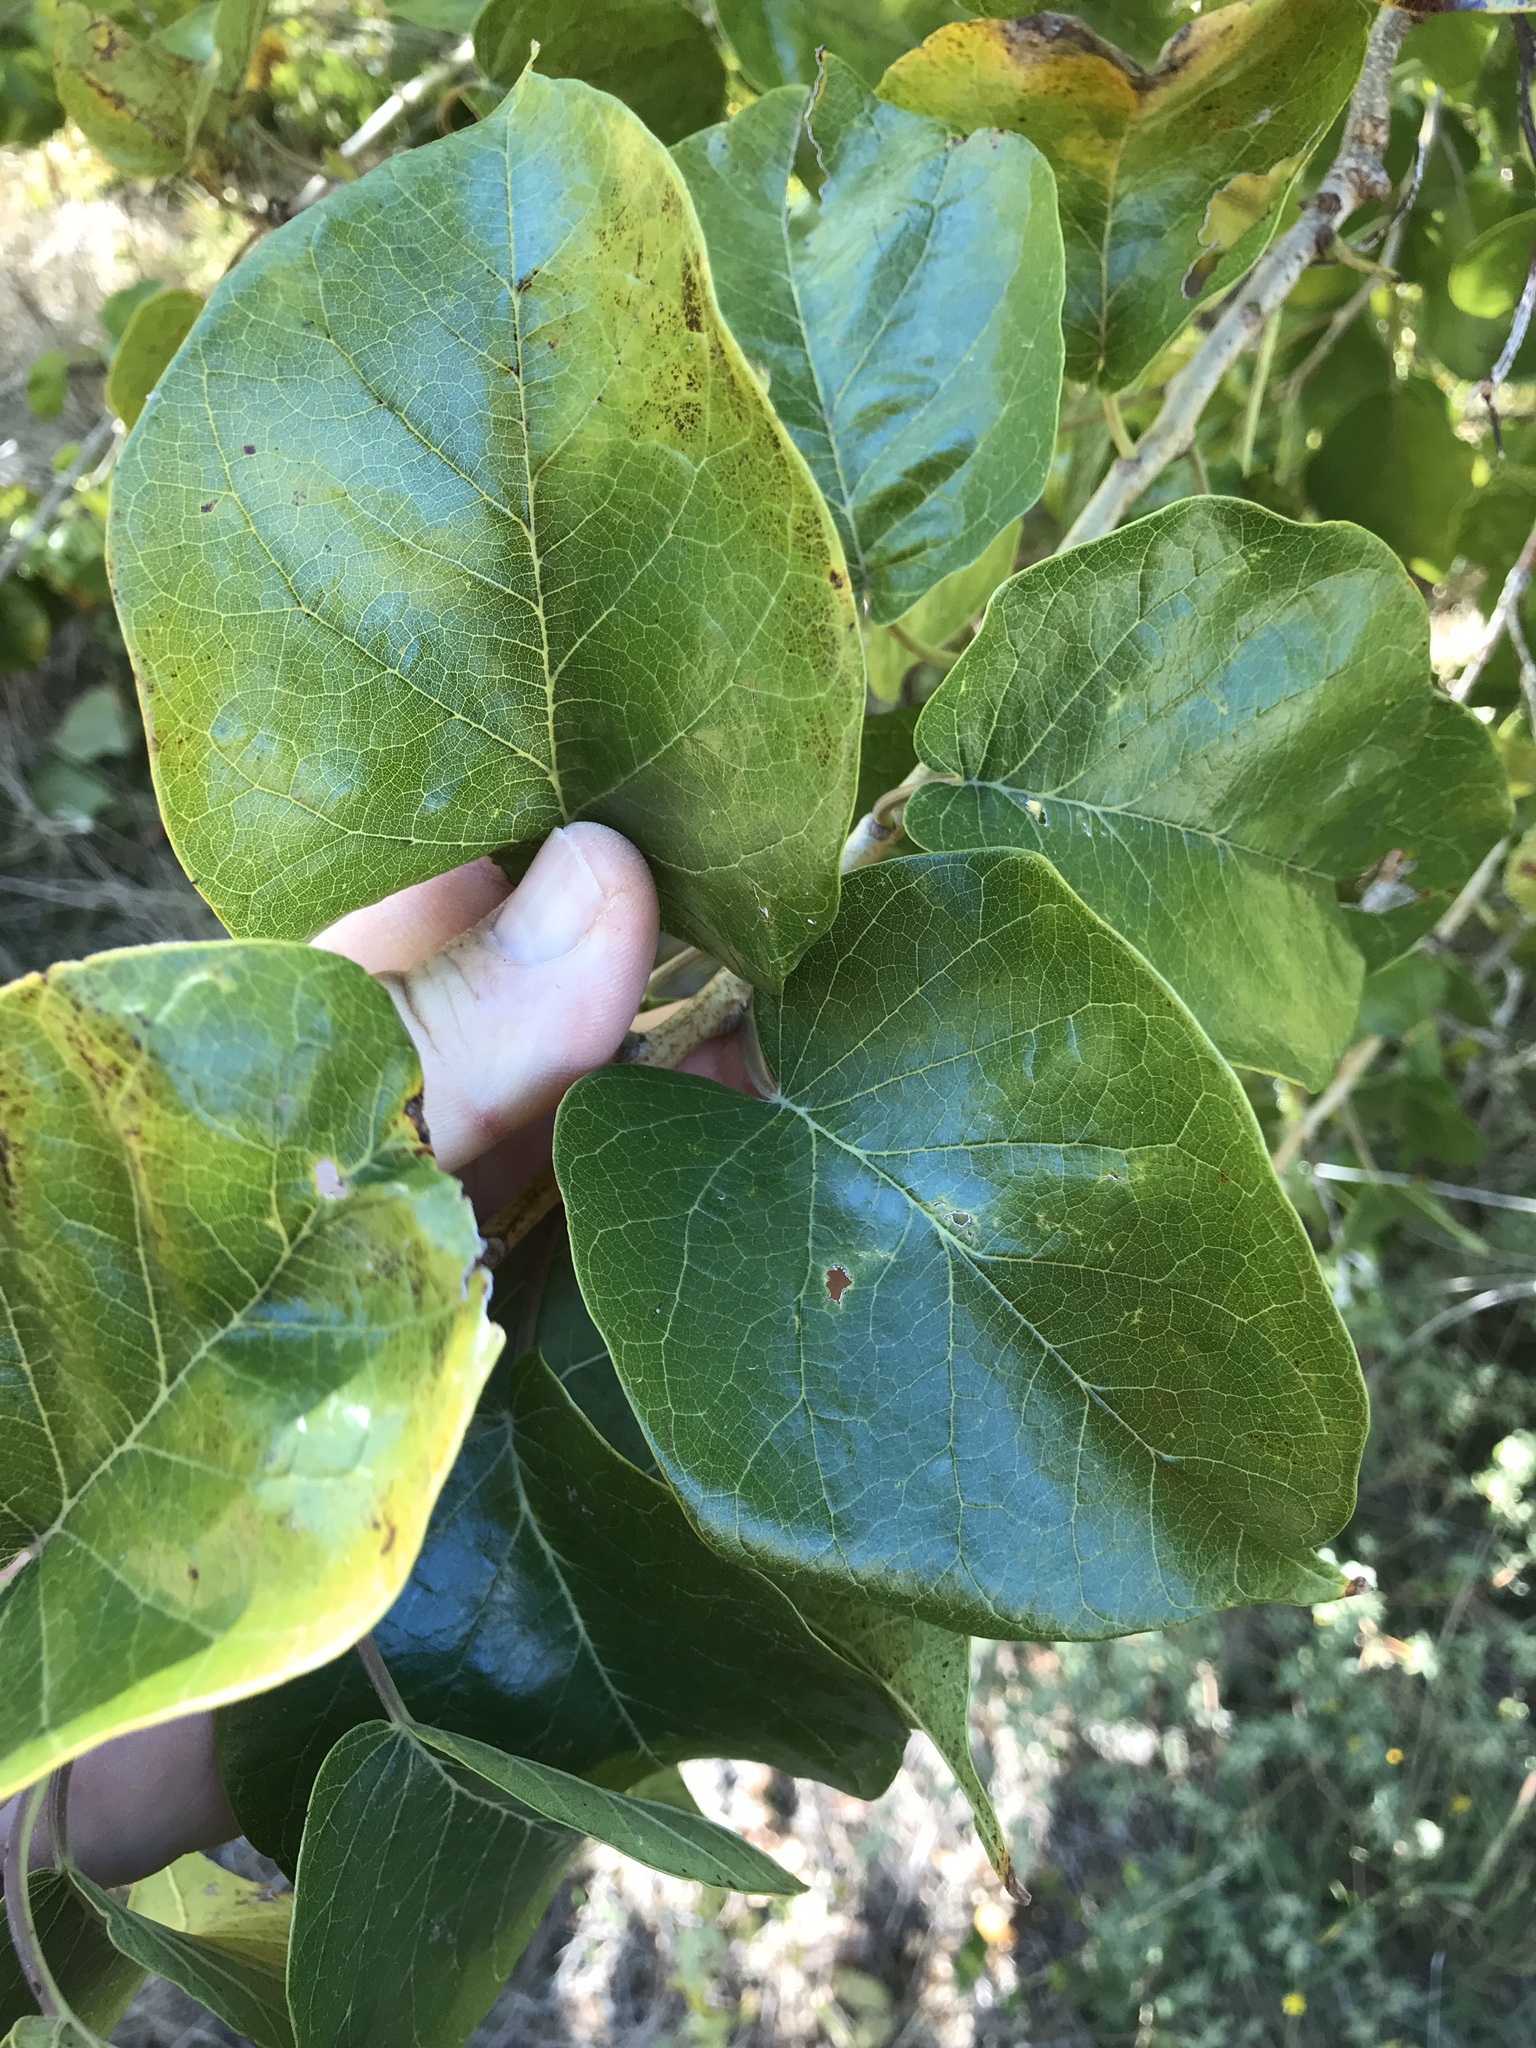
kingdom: Plantae
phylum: Tracheophyta
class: Magnoliopsida
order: Rosales
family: Moraceae
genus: Maclura
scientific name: Maclura pomifera
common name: Osage-orange
